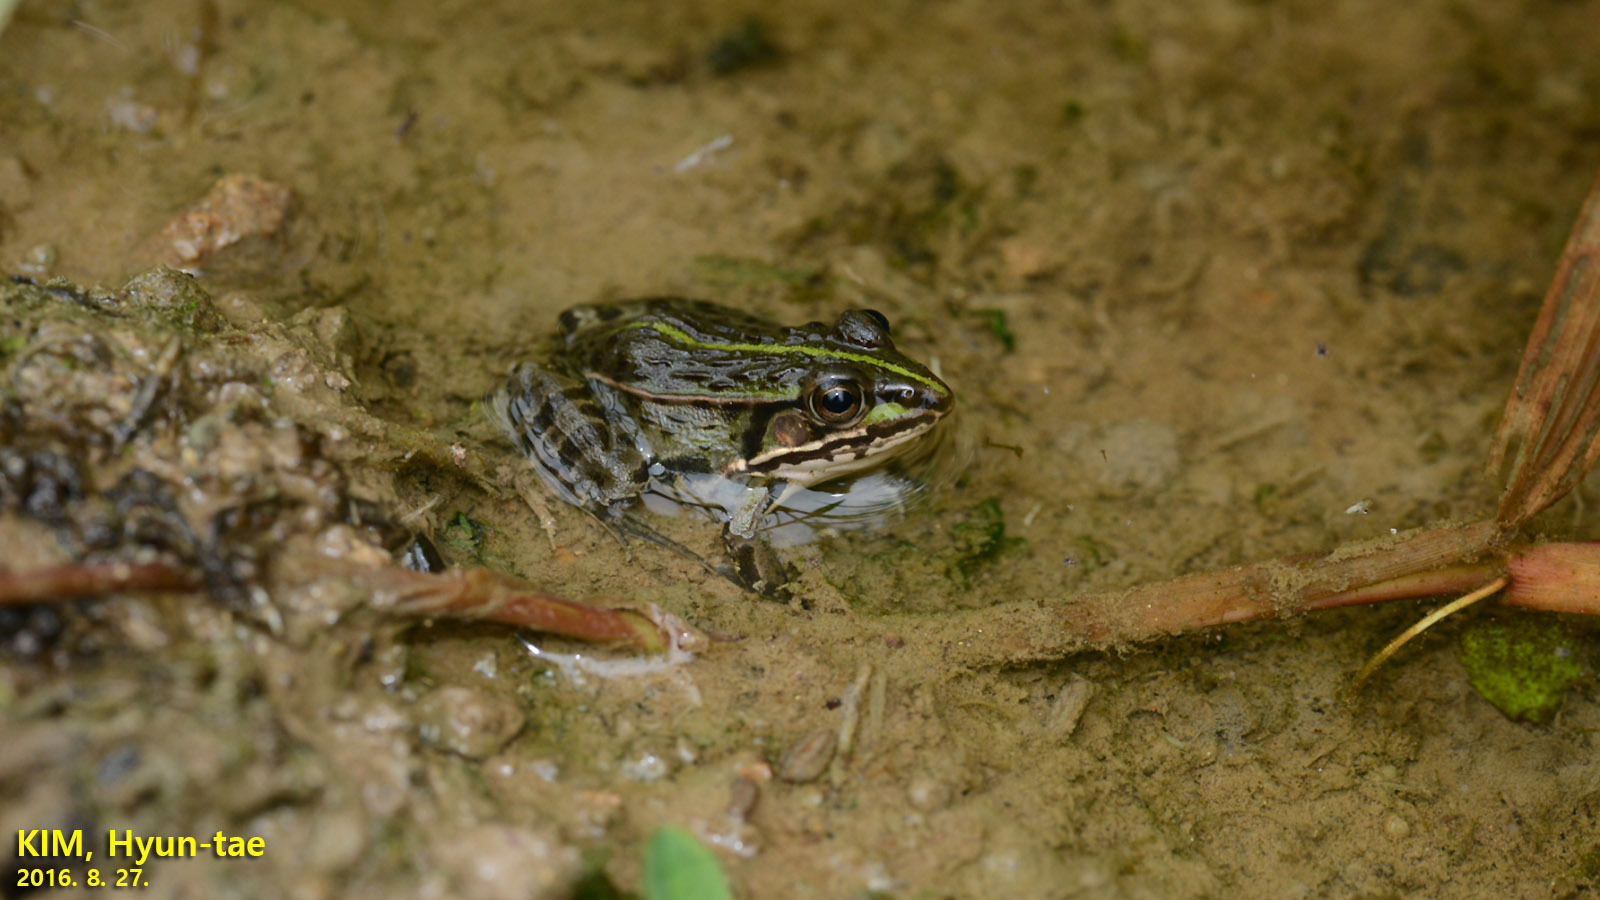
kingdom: Animalia
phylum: Chordata
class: Amphibia
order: Anura
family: Ranidae
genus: Pelophylax
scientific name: Pelophylax nigromaculatus
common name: Black-spotted pond frog
